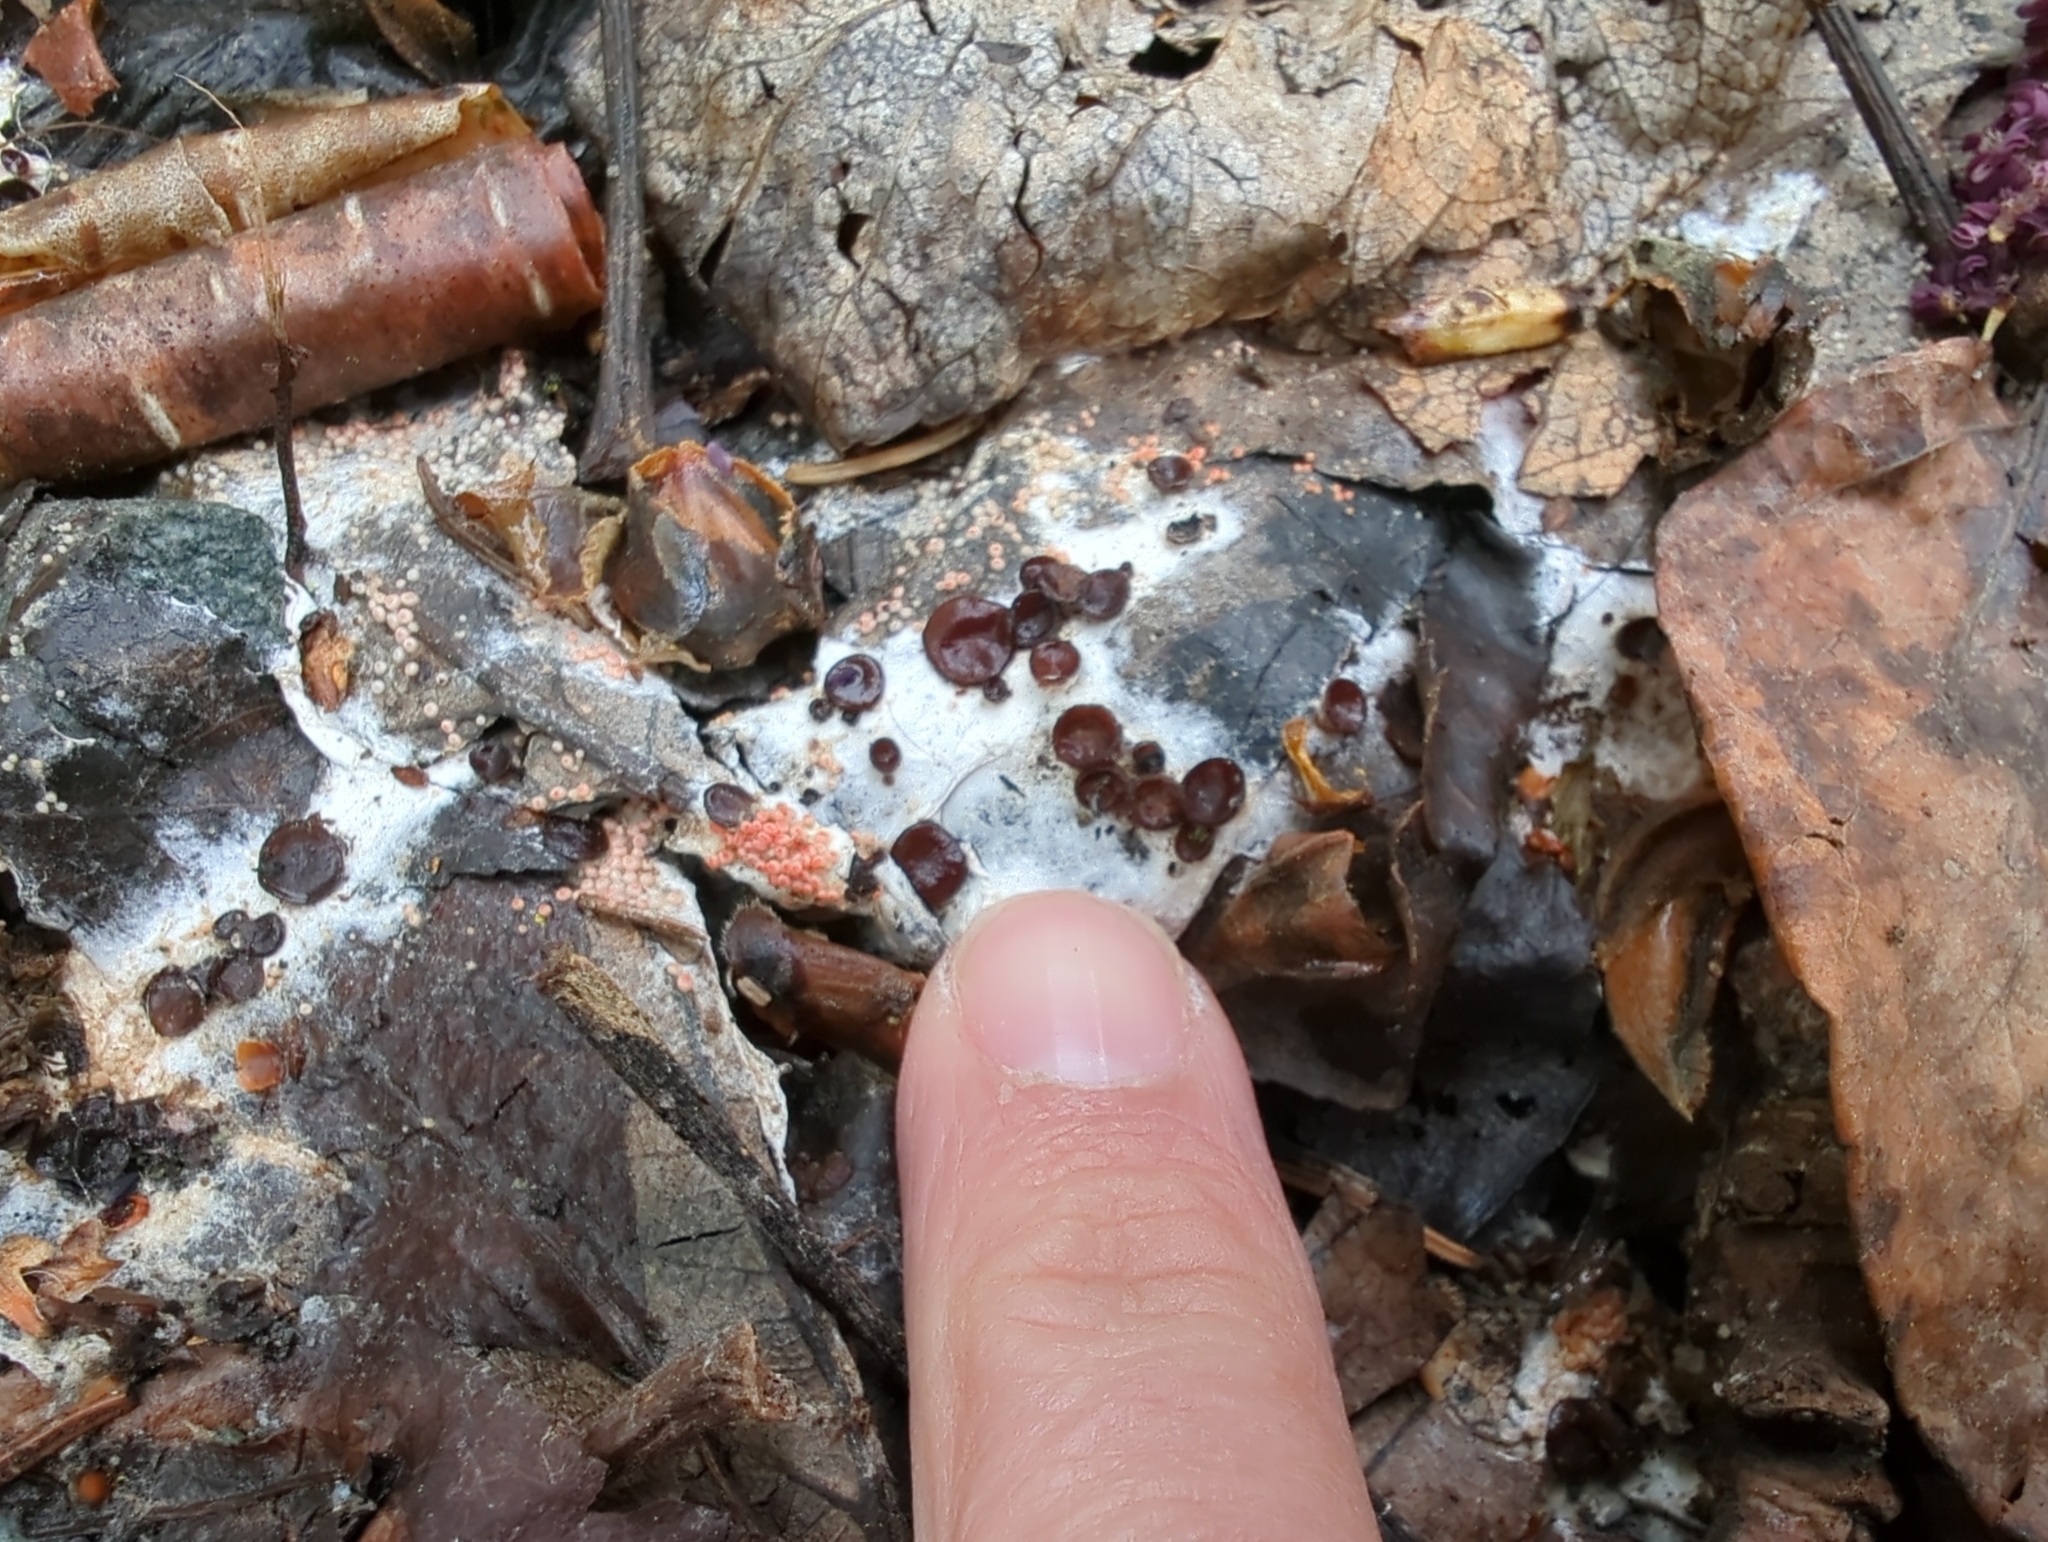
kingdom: Fungi
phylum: Ascomycota
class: Pezizomycetes
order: Pezizales
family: Pseudombrophilaceae
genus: Pseudombrophila
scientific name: Pseudombrophila guldeniae
